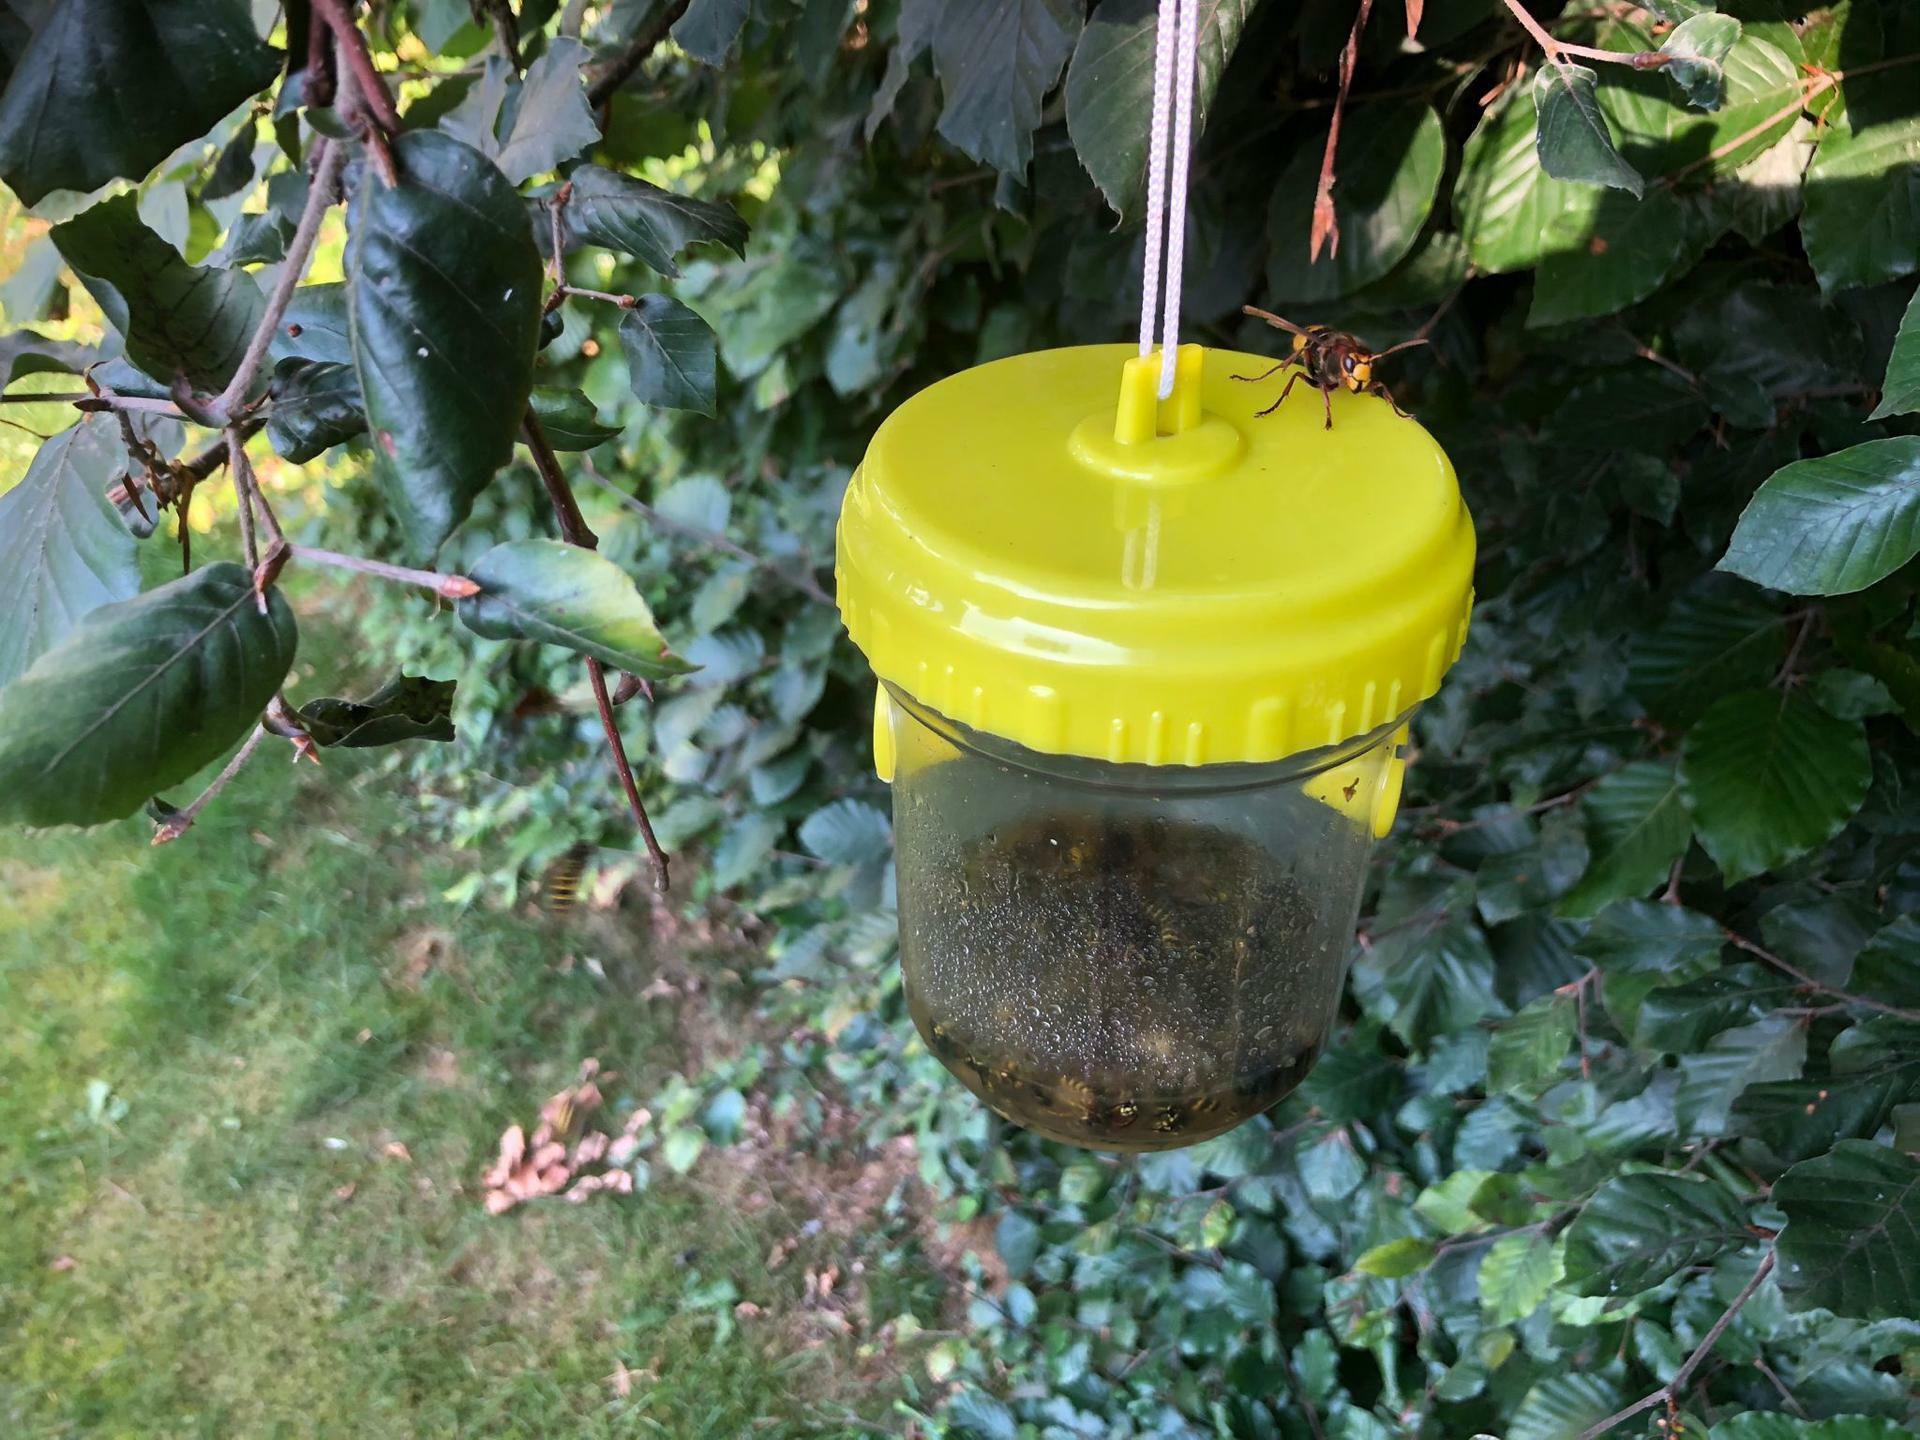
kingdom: Animalia
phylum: Arthropoda
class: Insecta
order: Hymenoptera
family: Vespidae
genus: Vespa
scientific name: Vespa crabro
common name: Hornet
